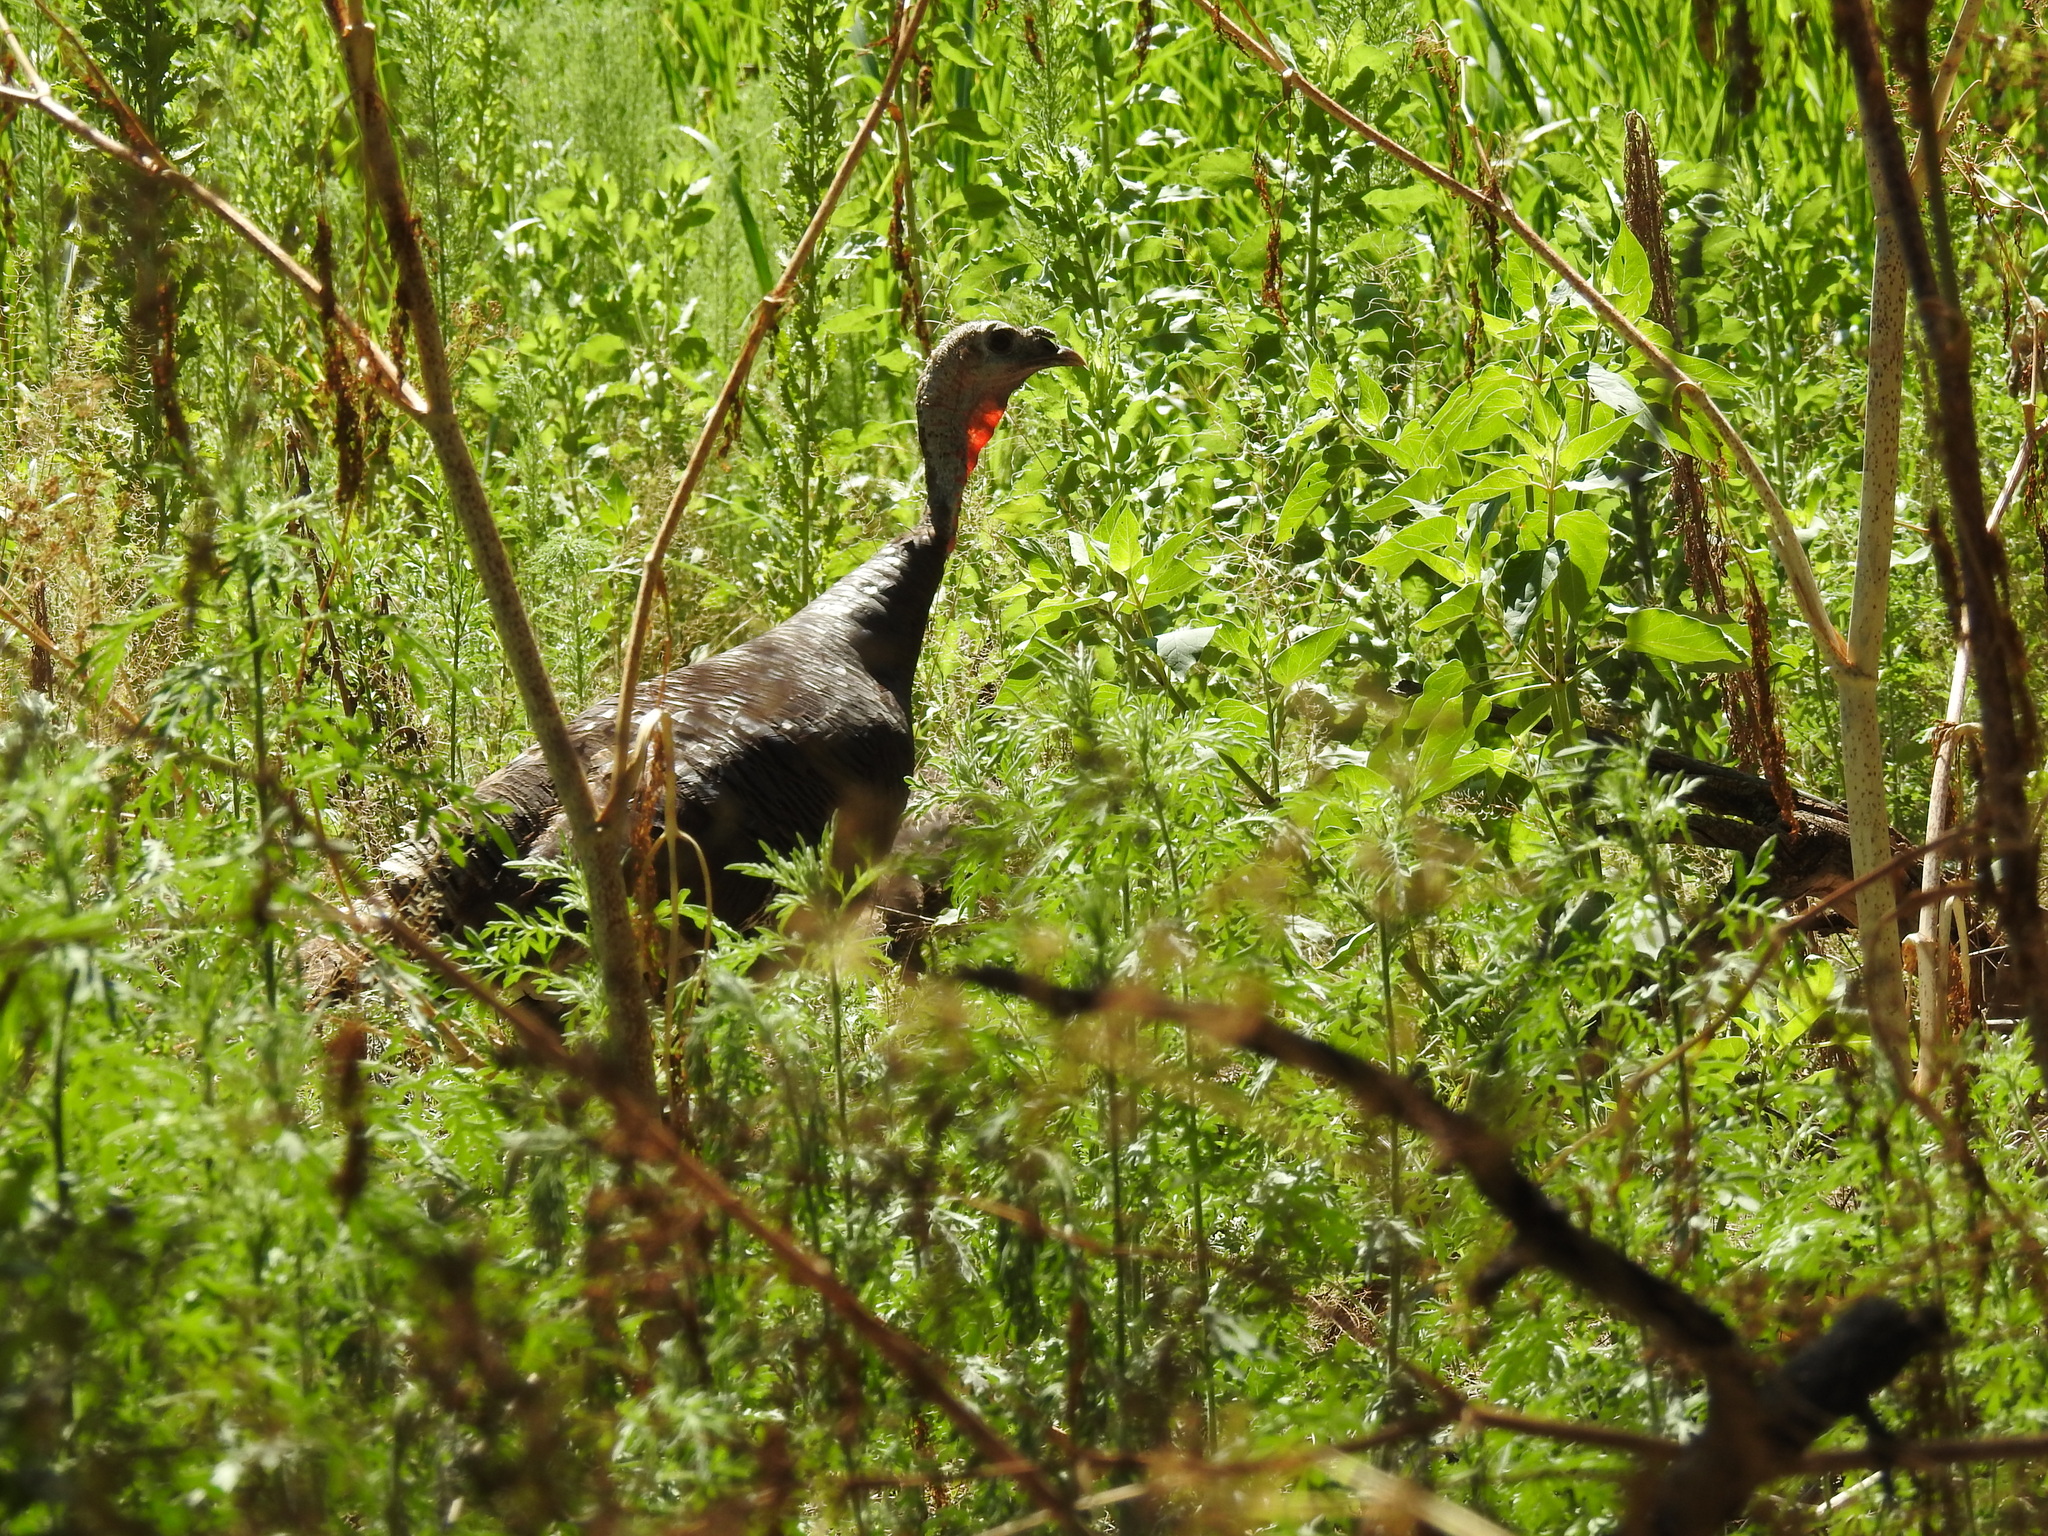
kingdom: Animalia
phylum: Chordata
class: Aves
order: Galliformes
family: Phasianidae
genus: Meleagris
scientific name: Meleagris gallopavo
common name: Wild turkey
